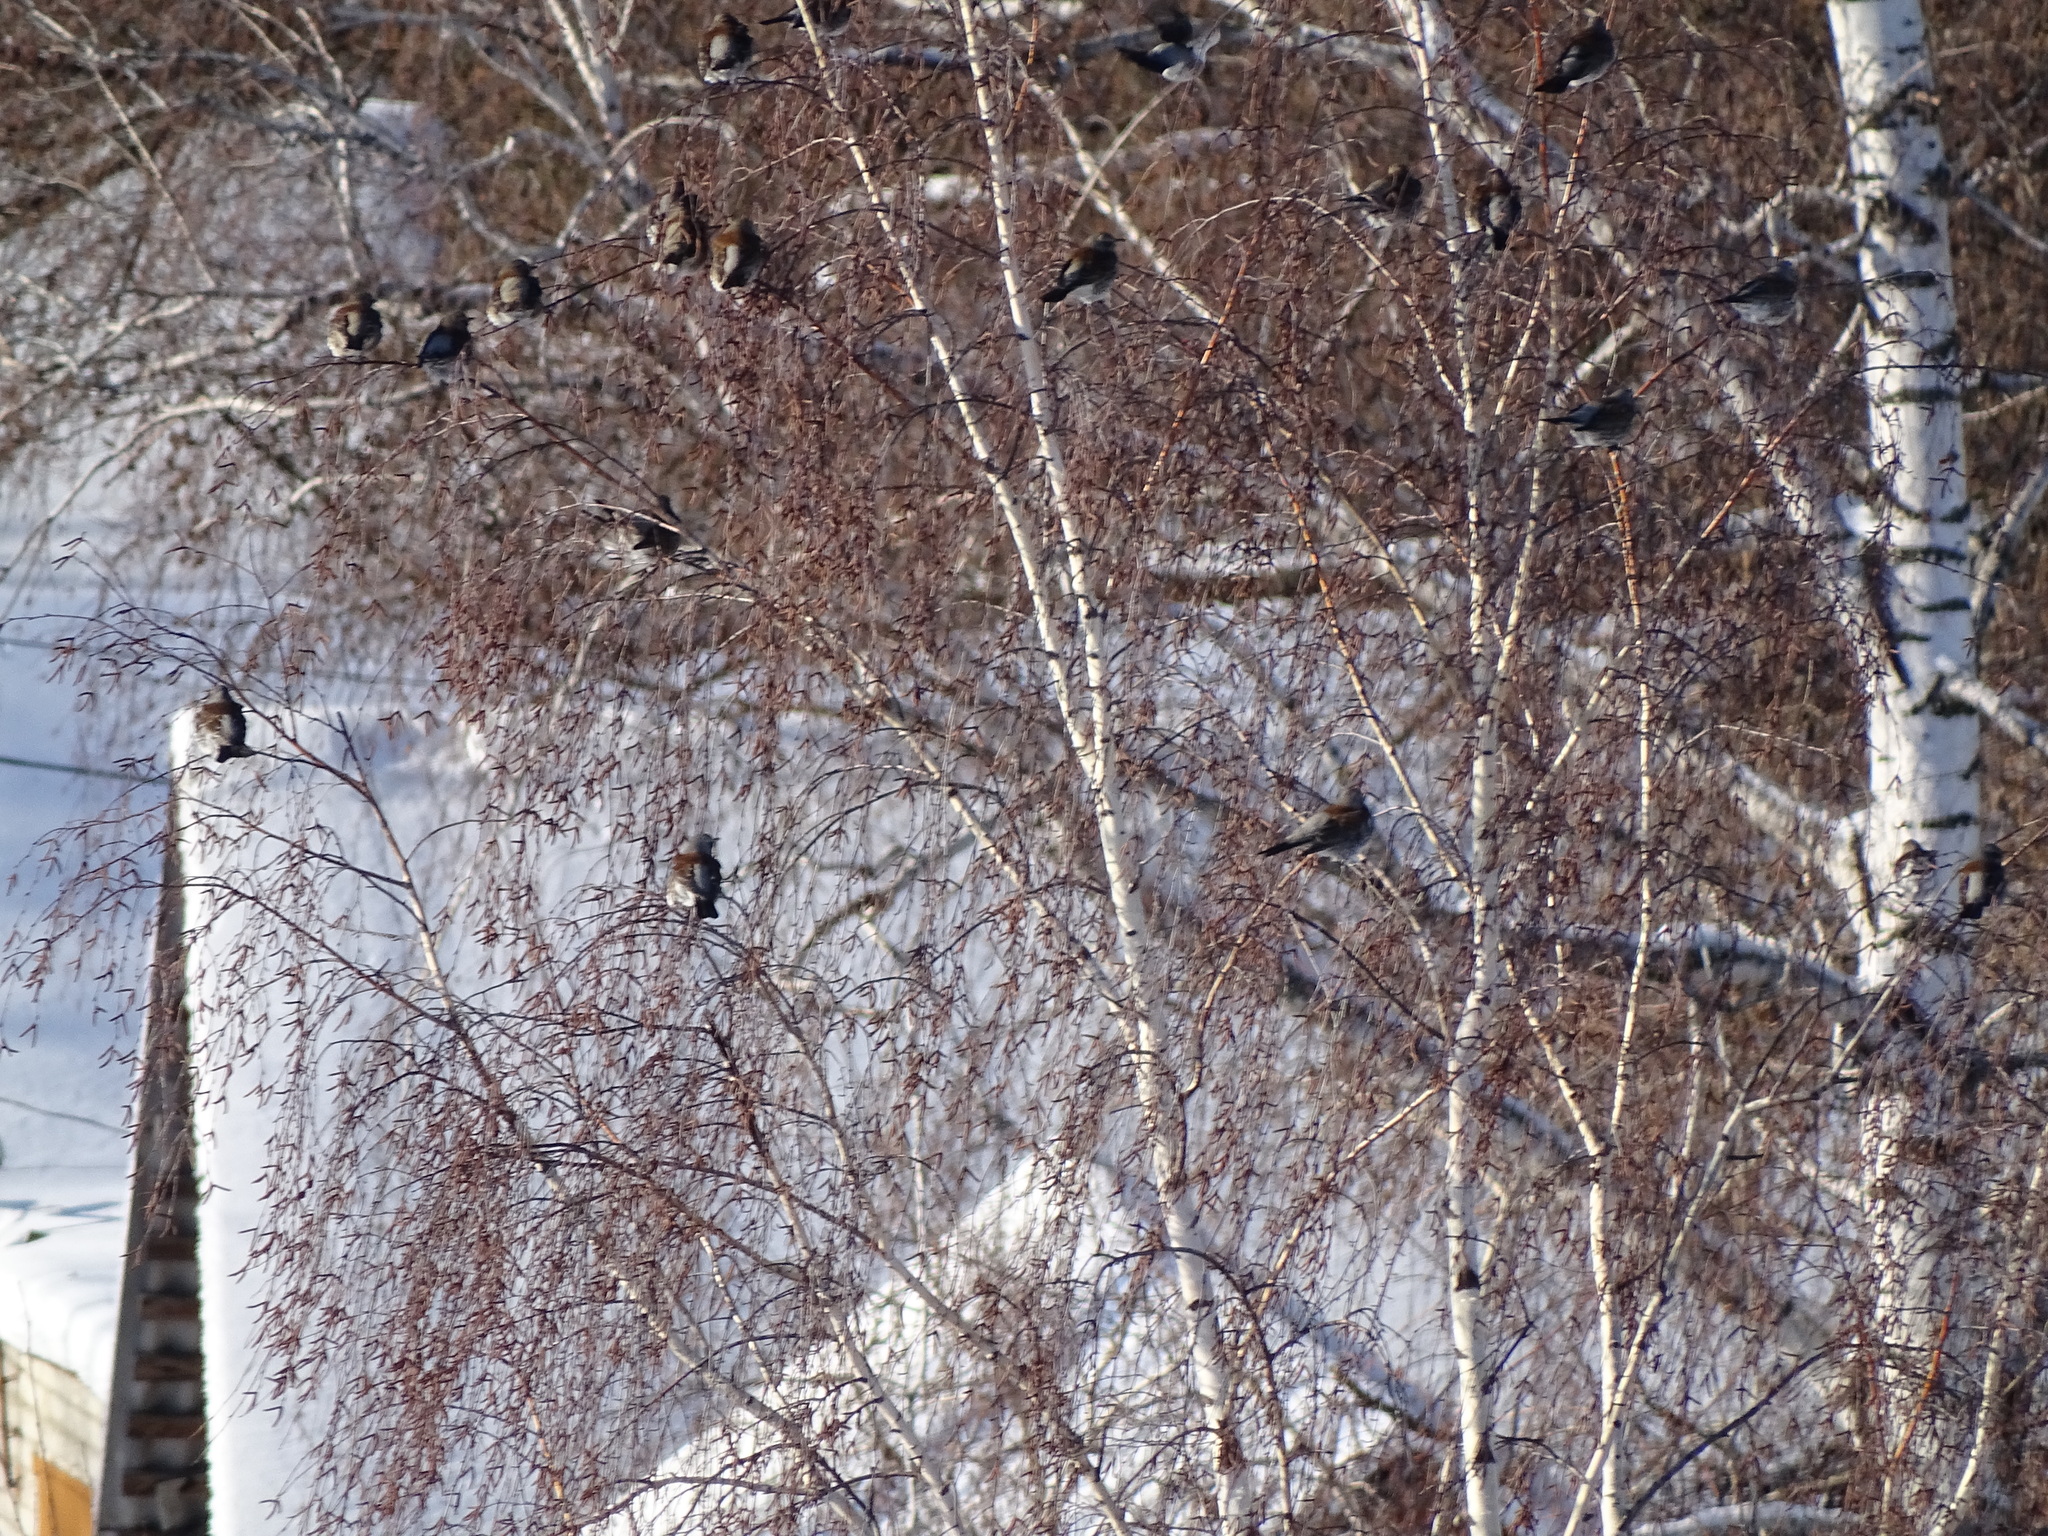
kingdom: Animalia
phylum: Chordata
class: Aves
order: Passeriformes
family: Turdidae
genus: Turdus
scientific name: Turdus pilaris
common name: Fieldfare
